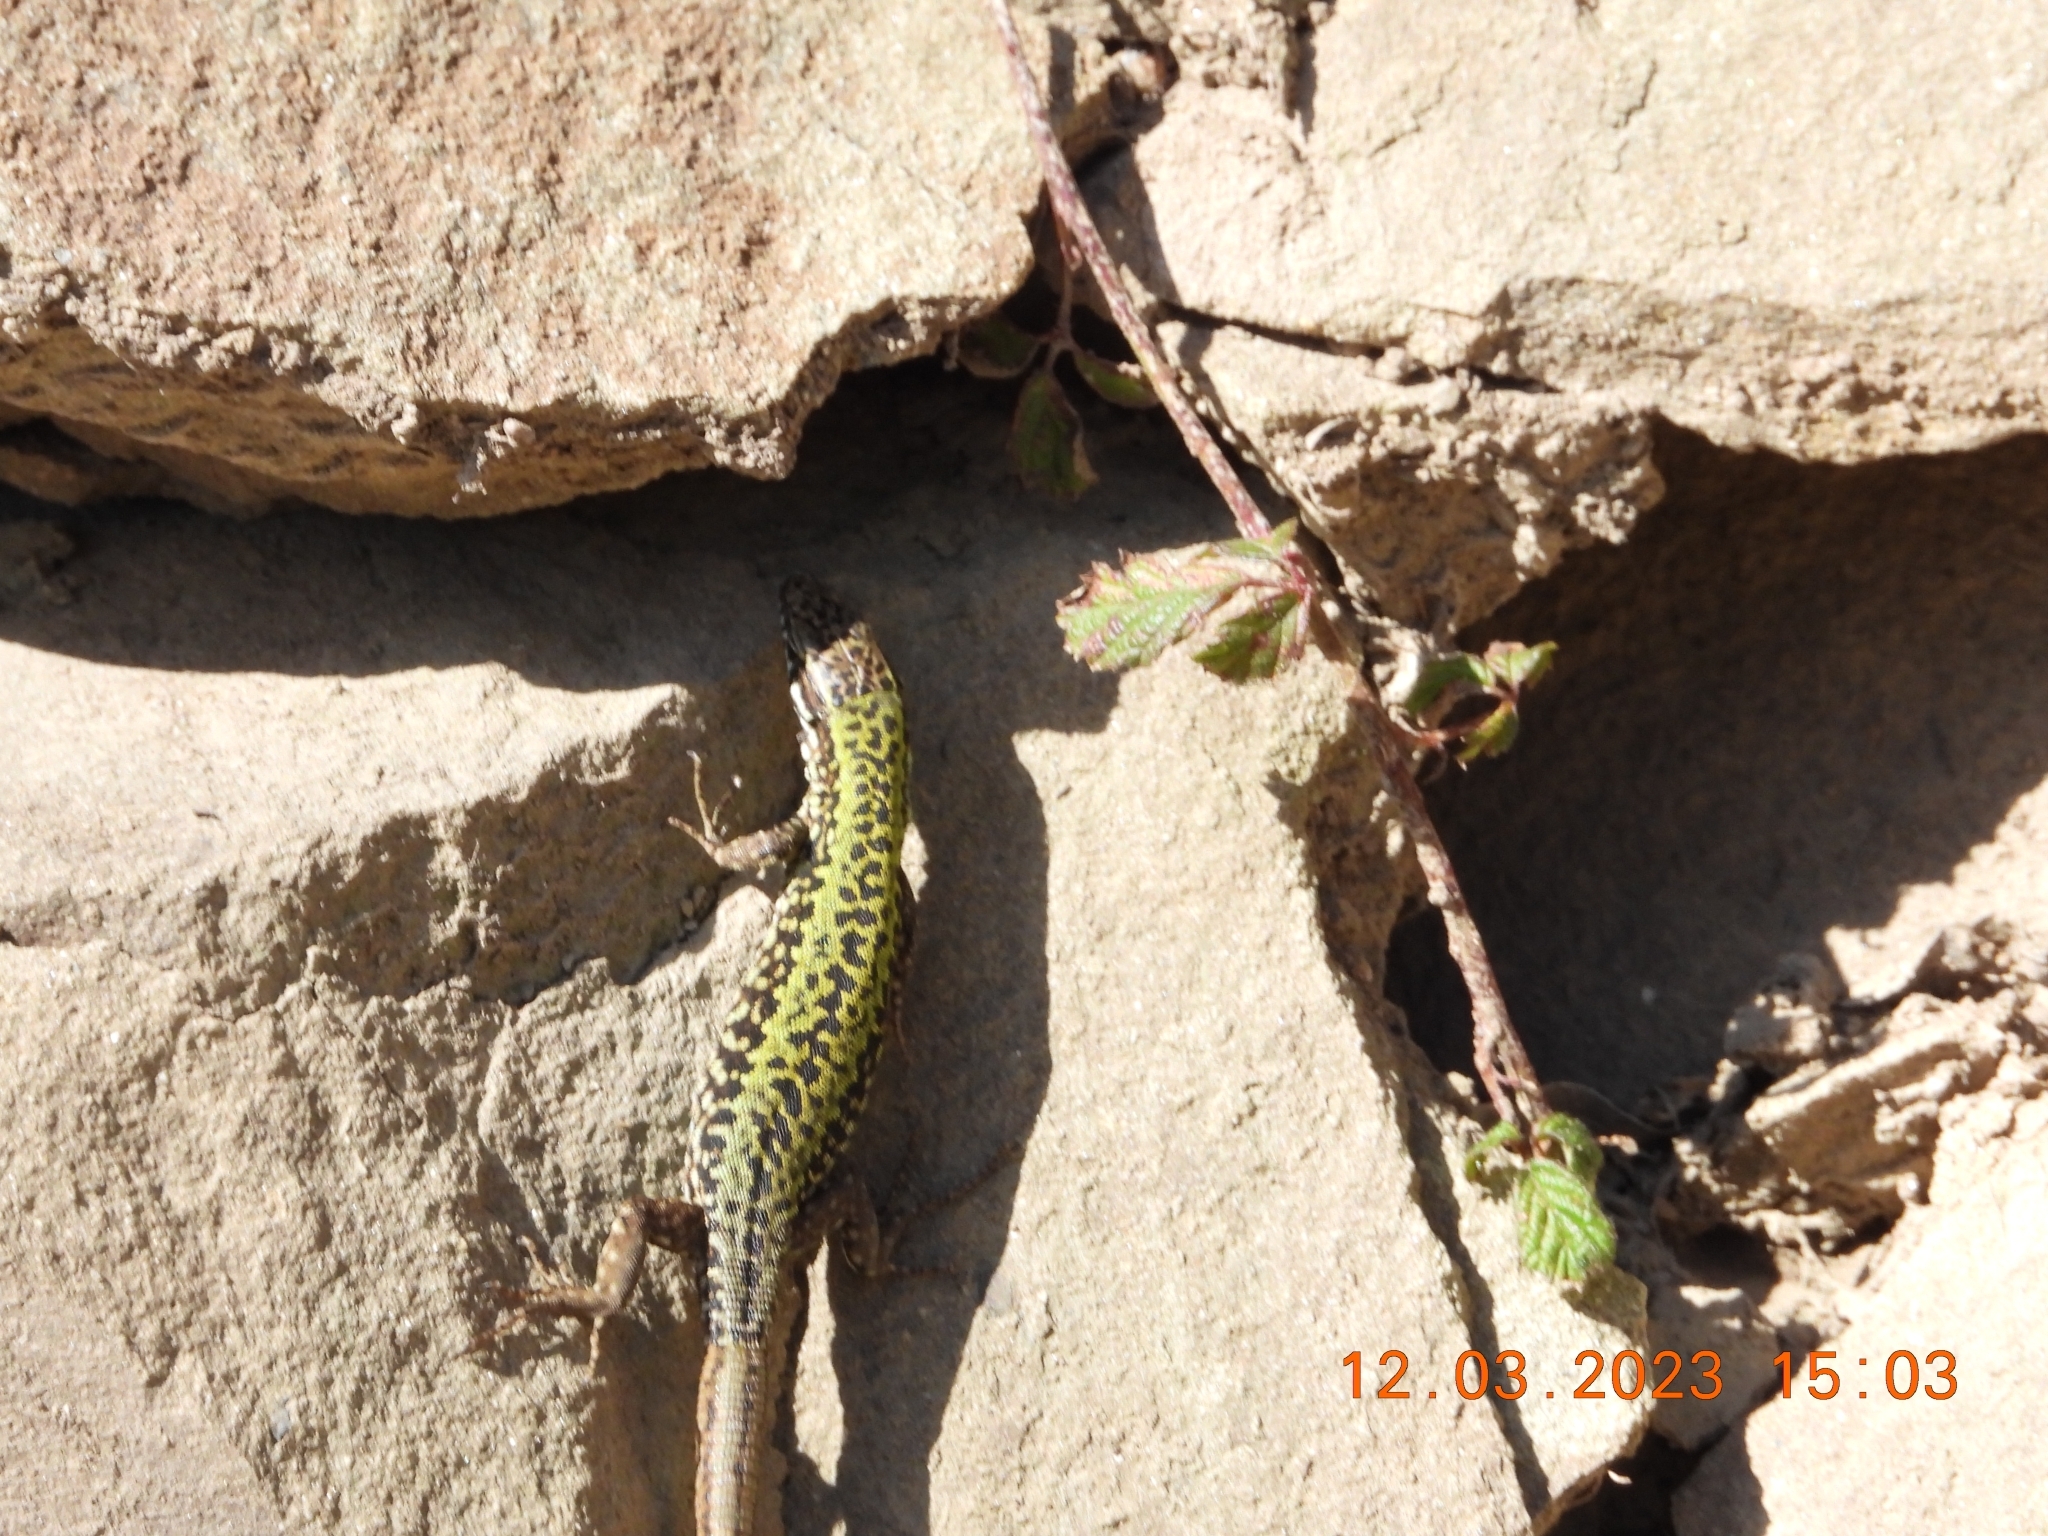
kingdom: Animalia
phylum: Chordata
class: Squamata
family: Lacertidae
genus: Podarcis
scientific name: Podarcis muralis
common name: Common wall lizard
